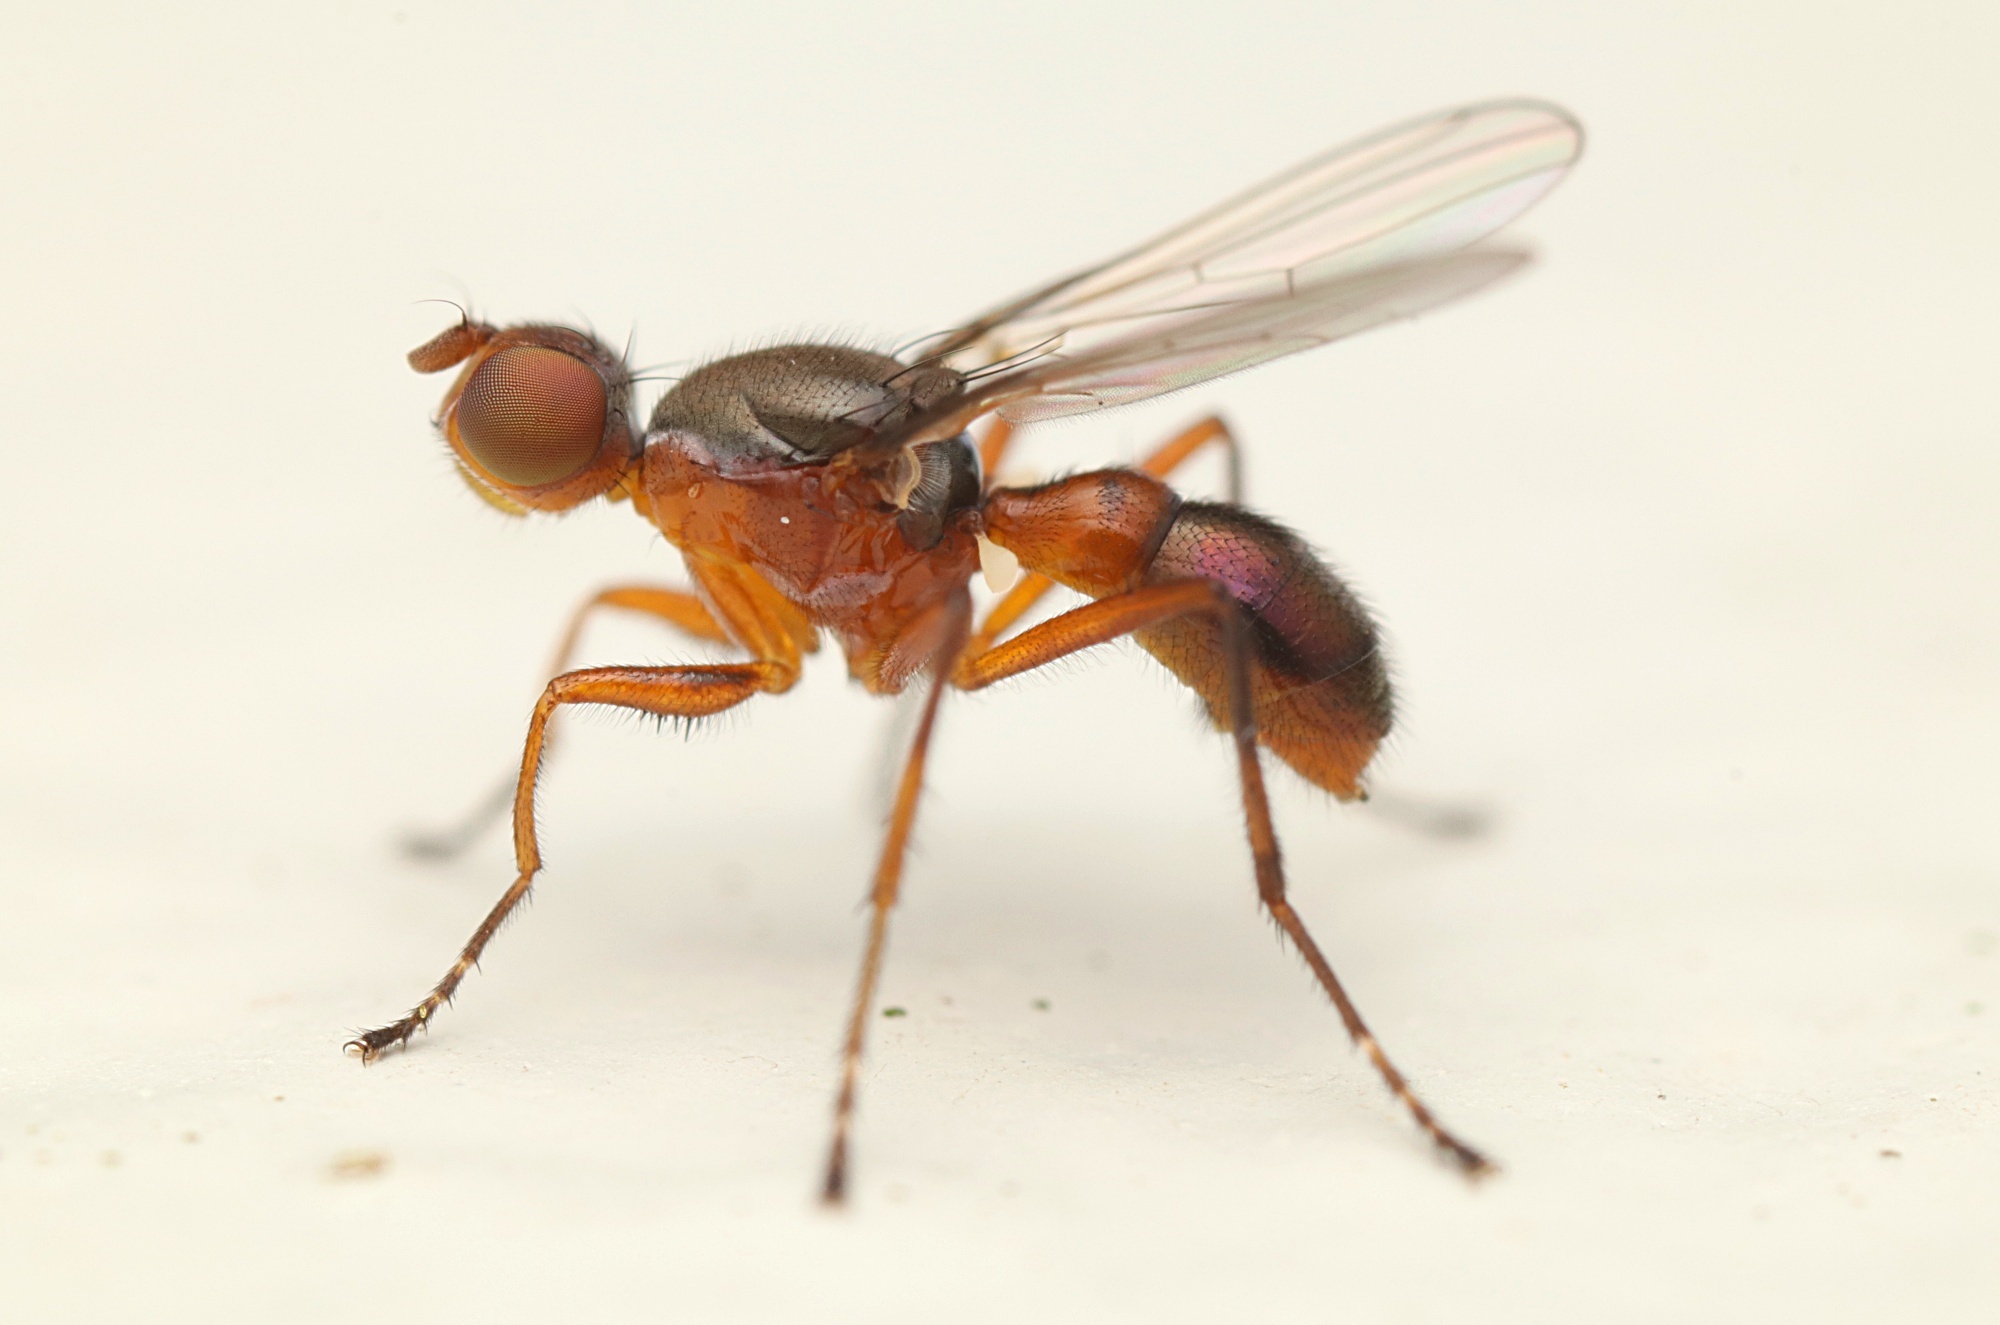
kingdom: Animalia
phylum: Arthropoda
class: Insecta
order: Diptera
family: Sepsidae
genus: Lasionemopoda
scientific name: Lasionemopoda hirsuta
